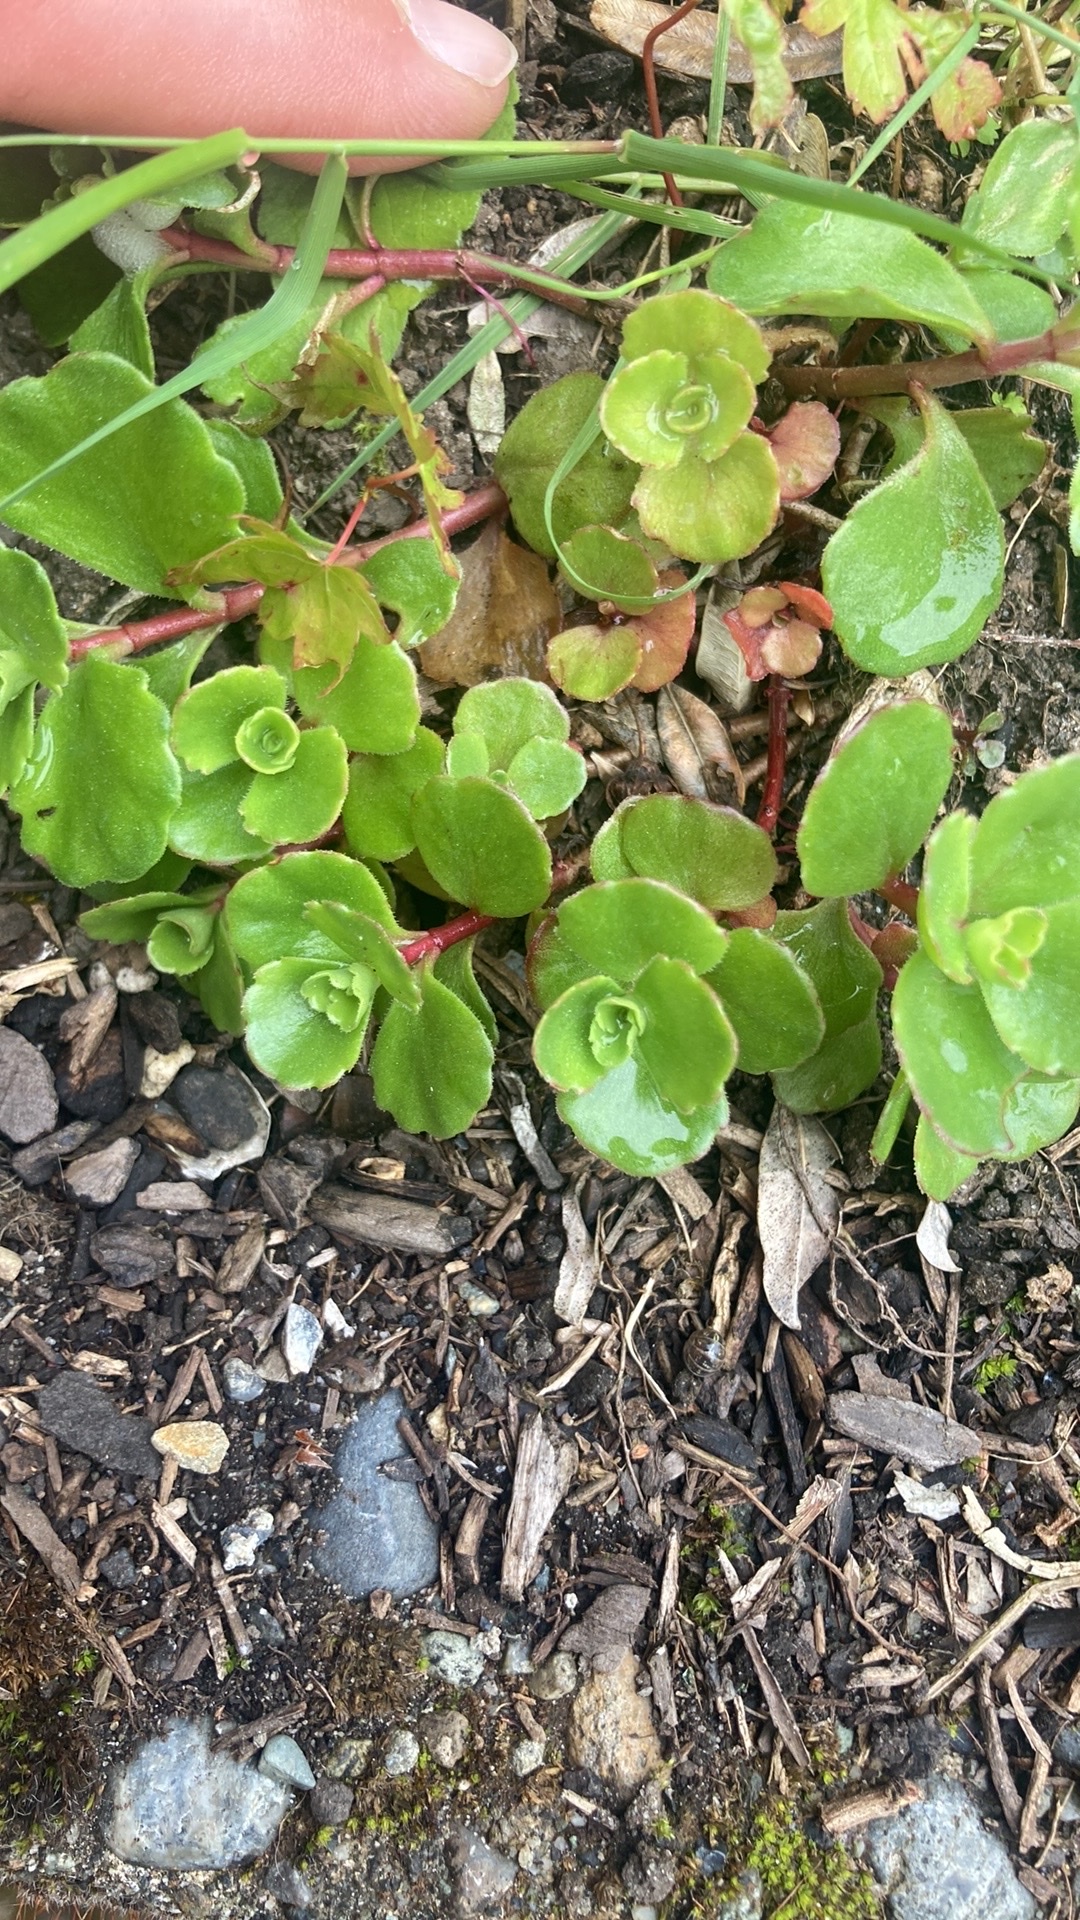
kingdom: Plantae
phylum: Tracheophyta
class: Magnoliopsida
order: Saxifragales
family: Crassulaceae
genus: Phedimus
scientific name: Phedimus spurius
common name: Caucasian stonecrop
